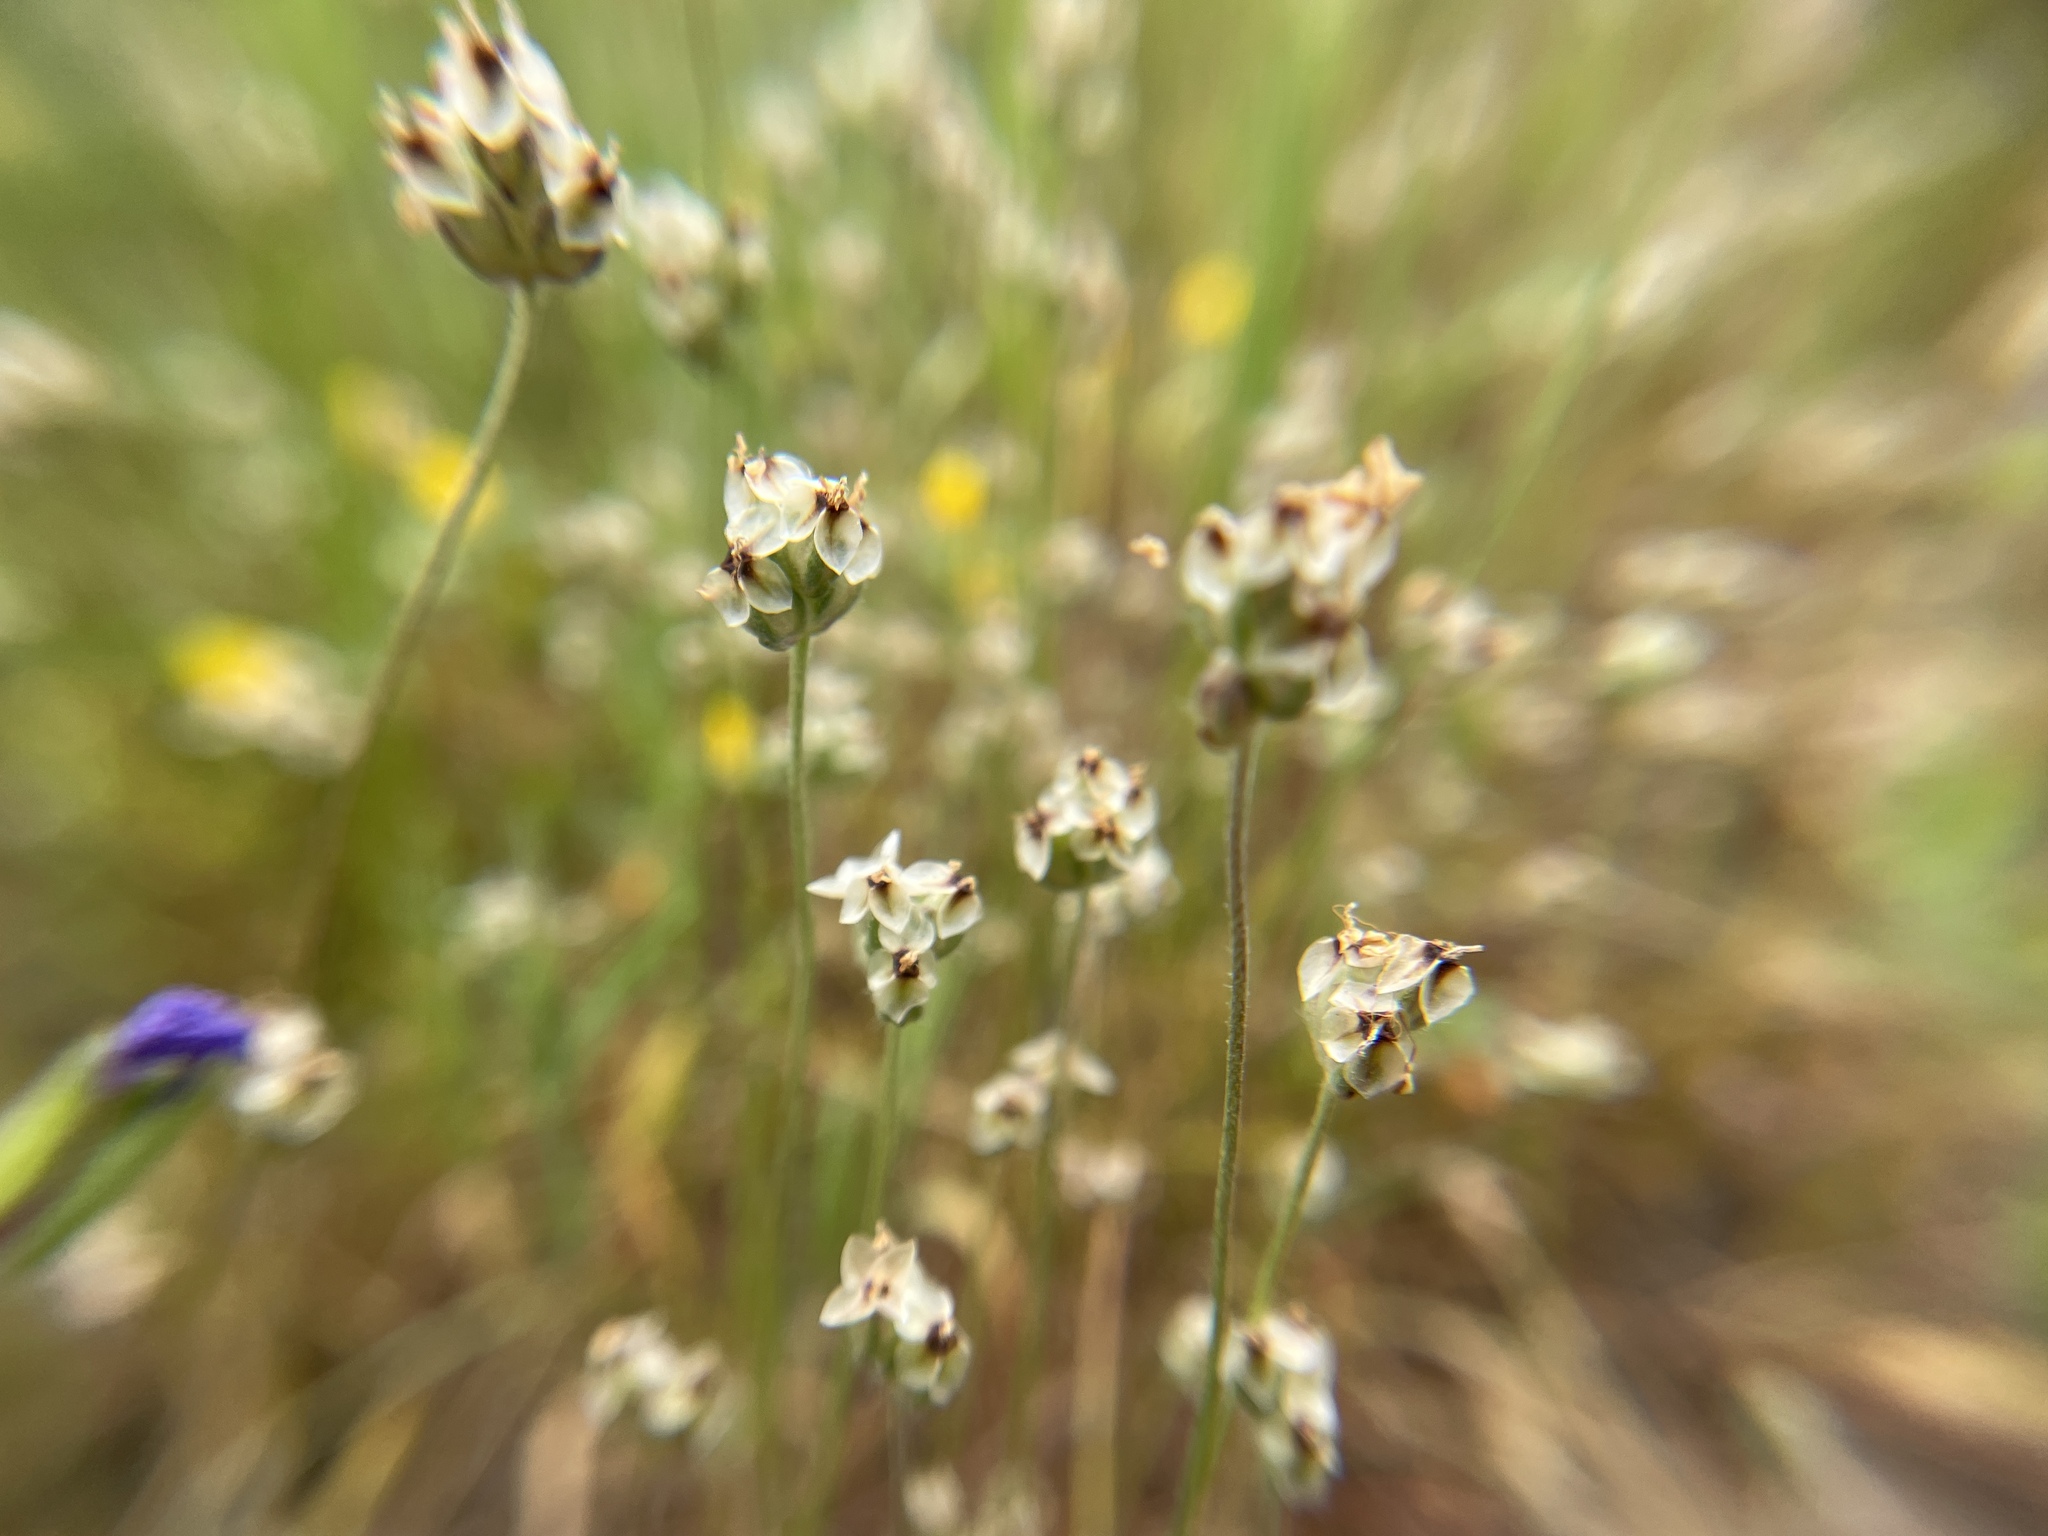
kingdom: Plantae
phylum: Tracheophyta
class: Magnoliopsida
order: Lamiales
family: Plantaginaceae
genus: Plantago
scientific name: Plantago erecta
